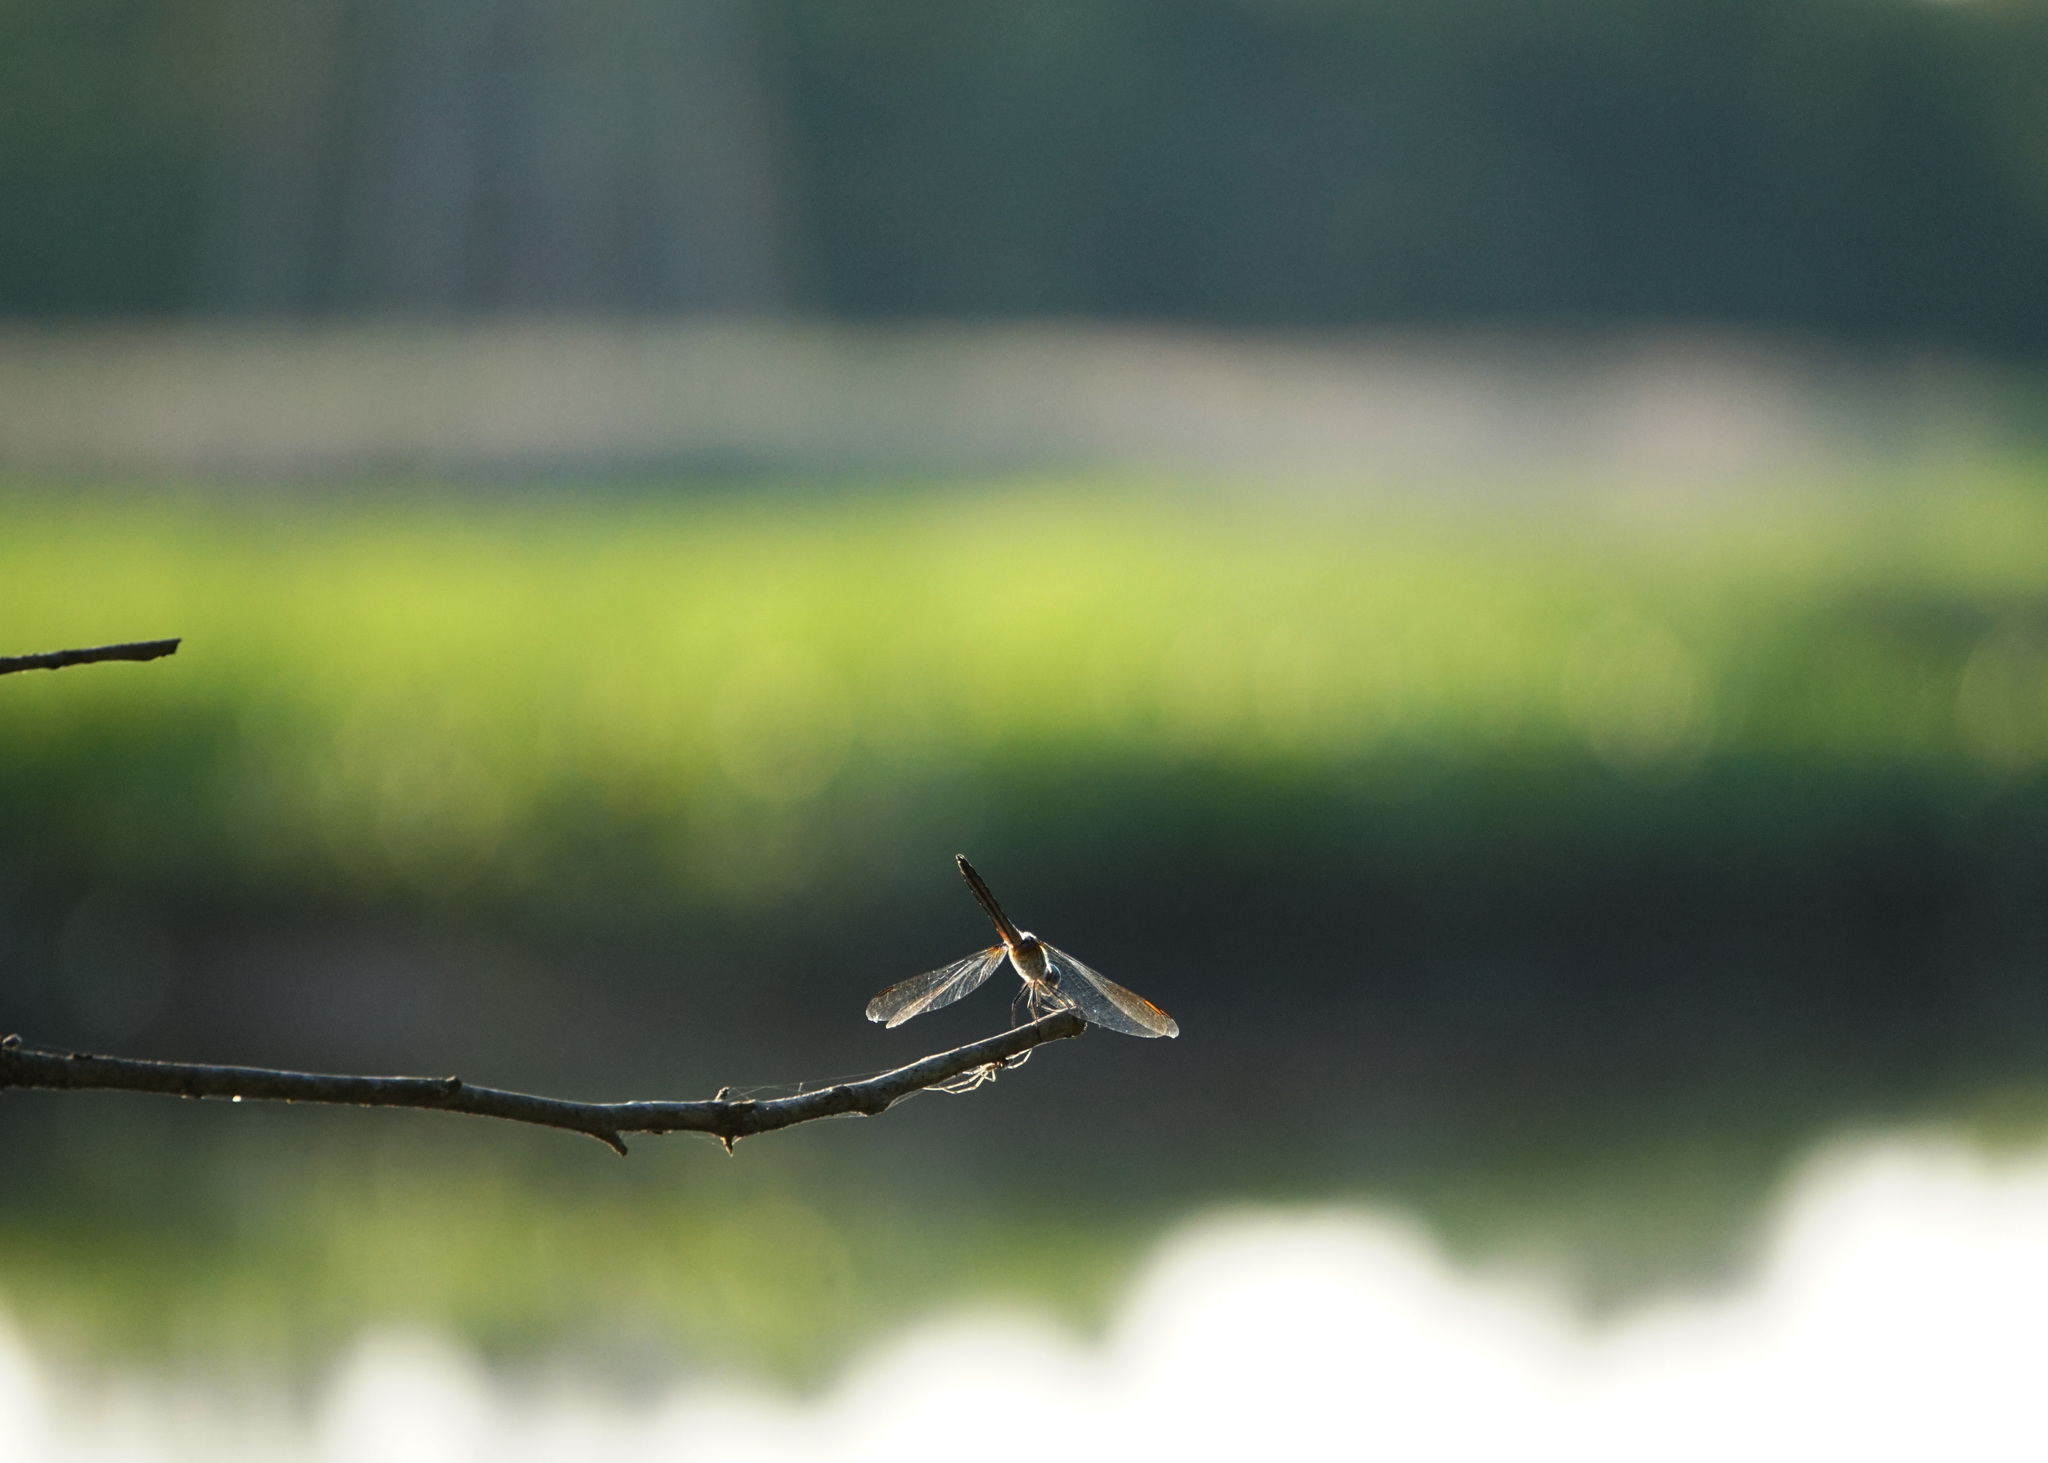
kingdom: Animalia
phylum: Arthropoda
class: Insecta
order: Odonata
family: Libellulidae
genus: Pachydiplax
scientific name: Pachydiplax longipennis
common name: Blue dasher
